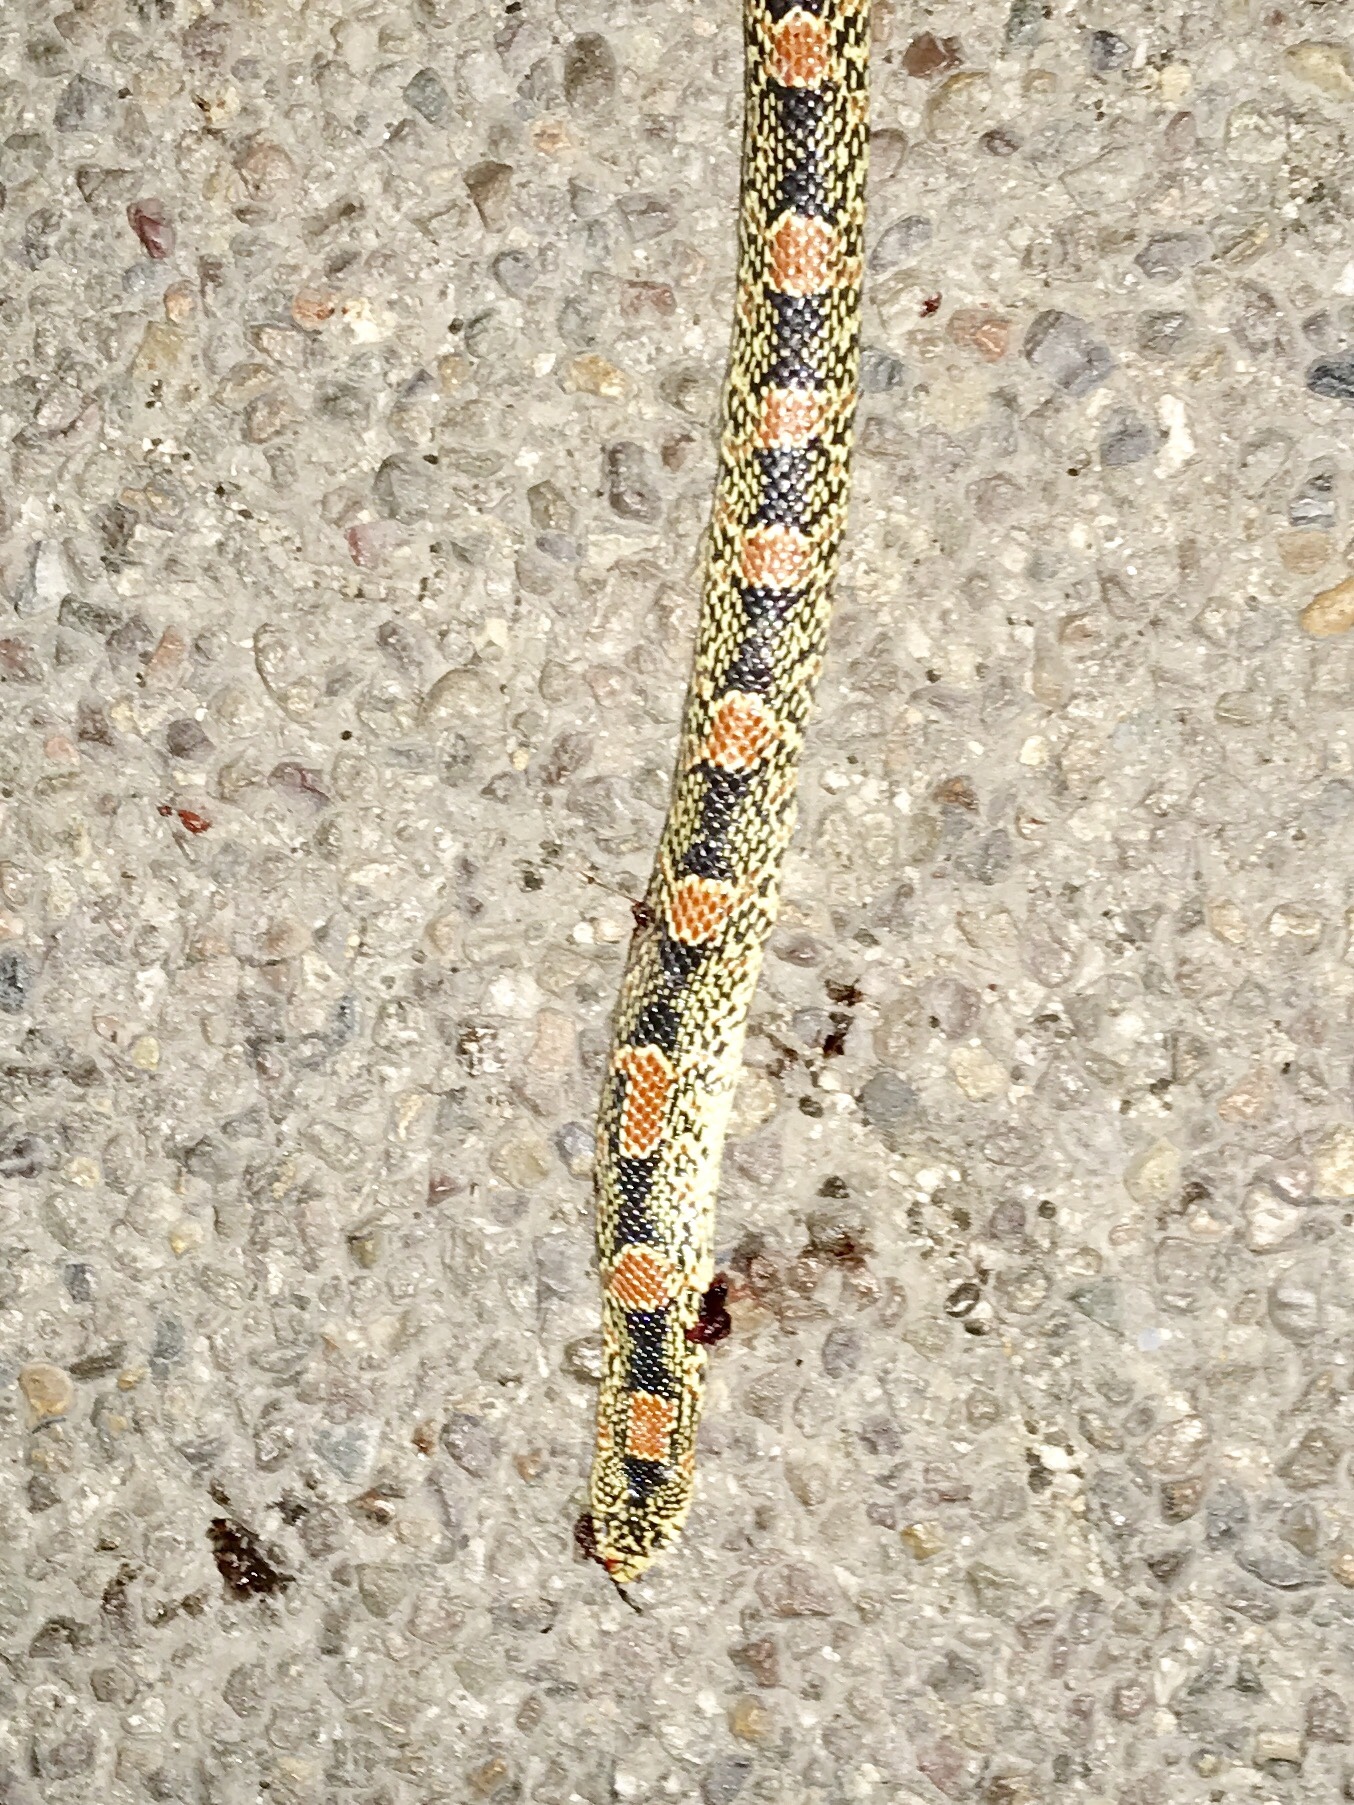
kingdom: Animalia
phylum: Chordata
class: Squamata
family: Colubridae
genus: Rhinocheilus
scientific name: Rhinocheilus lecontei
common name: Longnose snake
